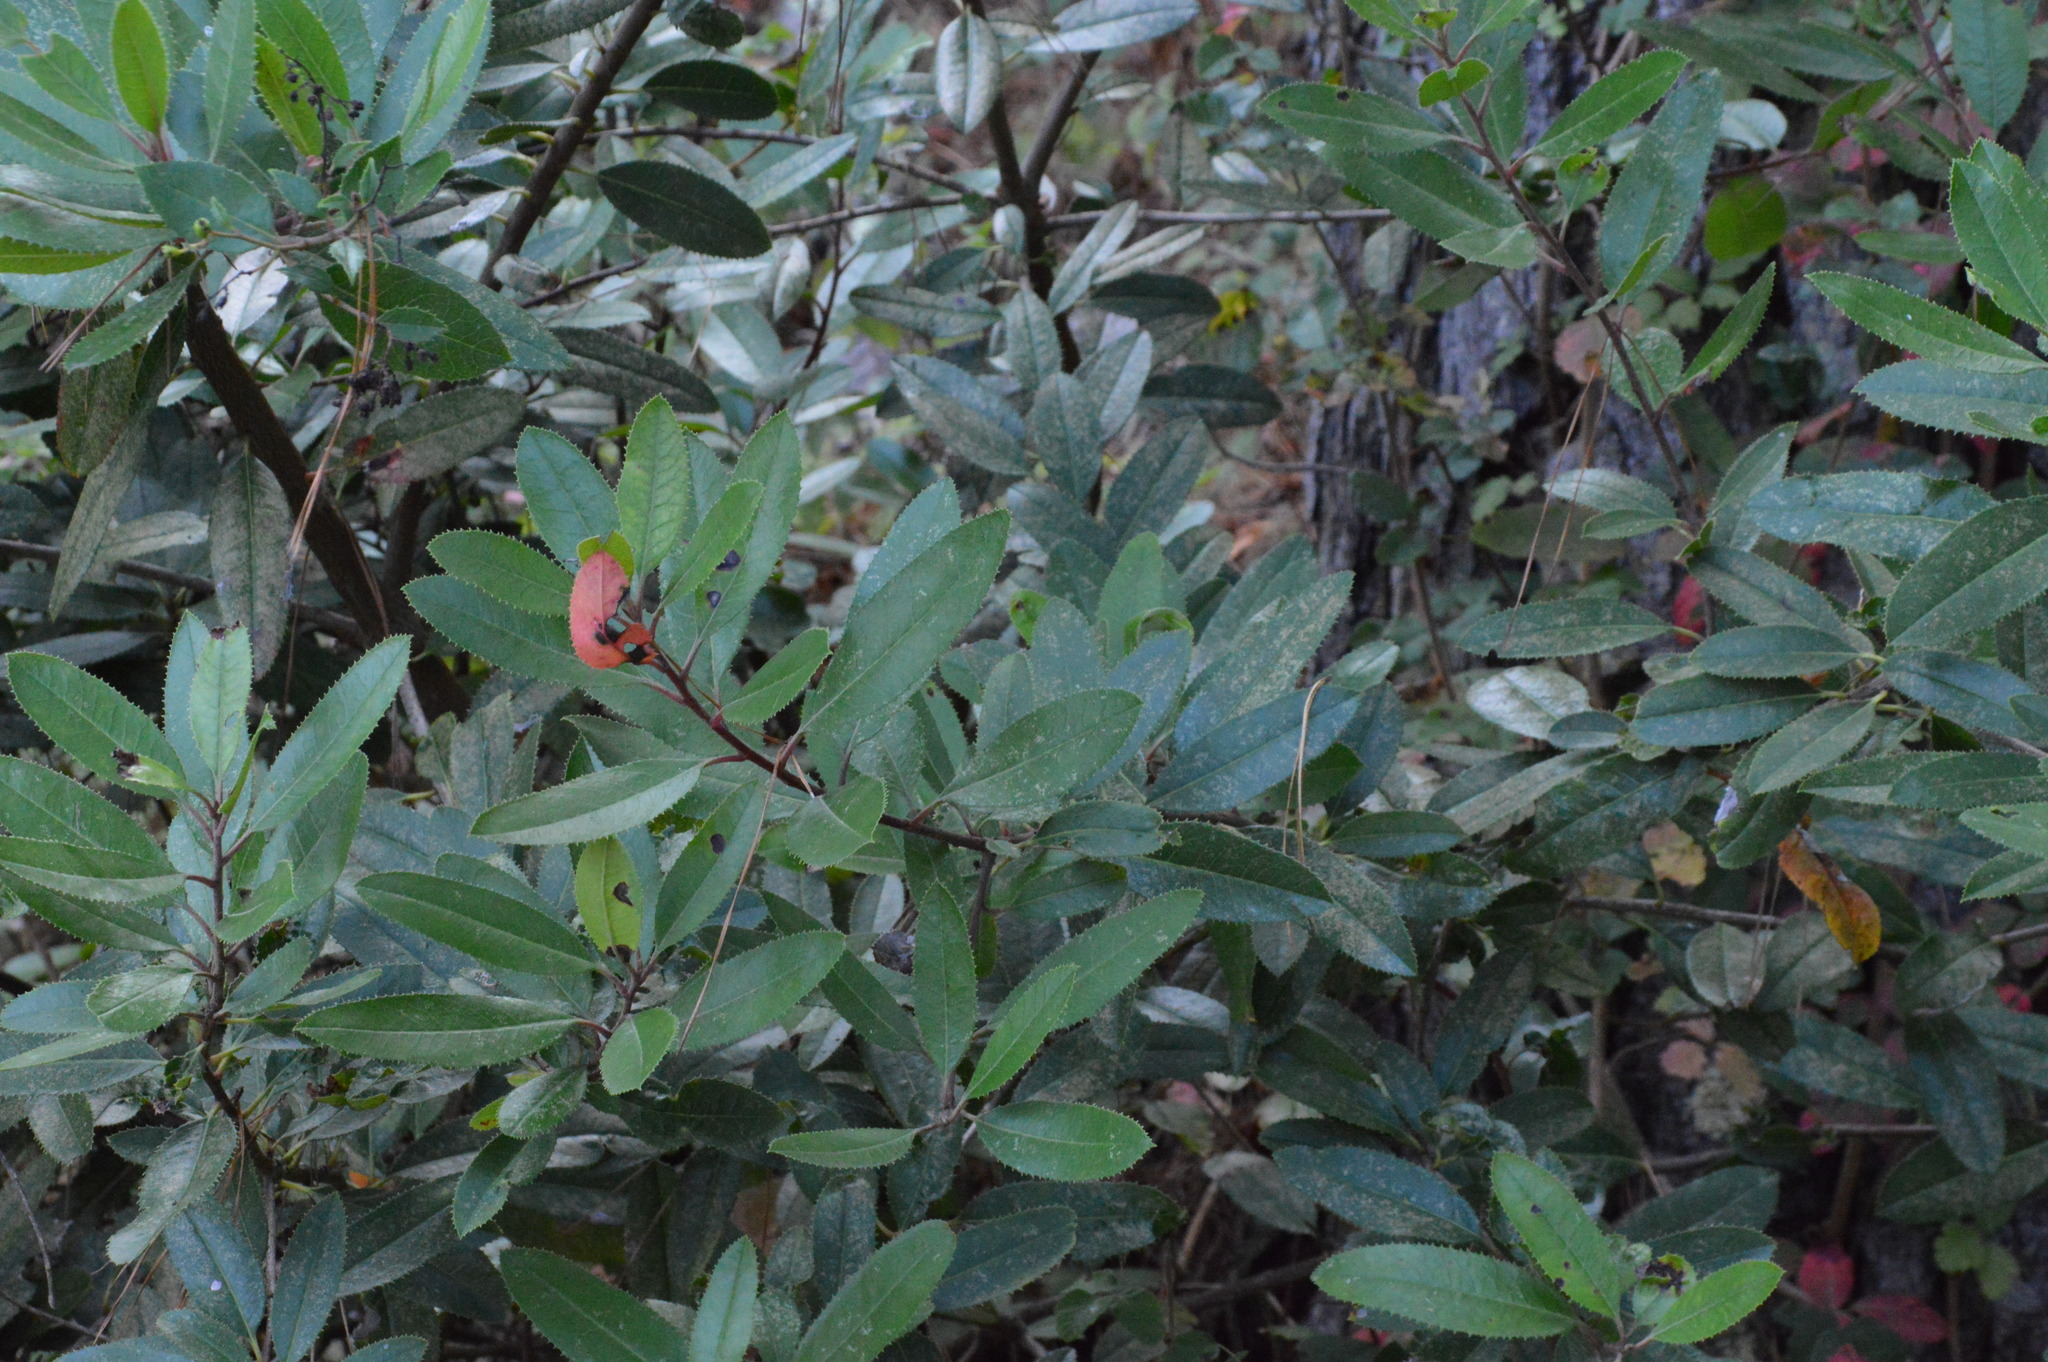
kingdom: Plantae
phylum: Tracheophyta
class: Magnoliopsida
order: Rosales
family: Rosaceae
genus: Heteromeles
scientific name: Heteromeles arbutifolia
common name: California-holly
